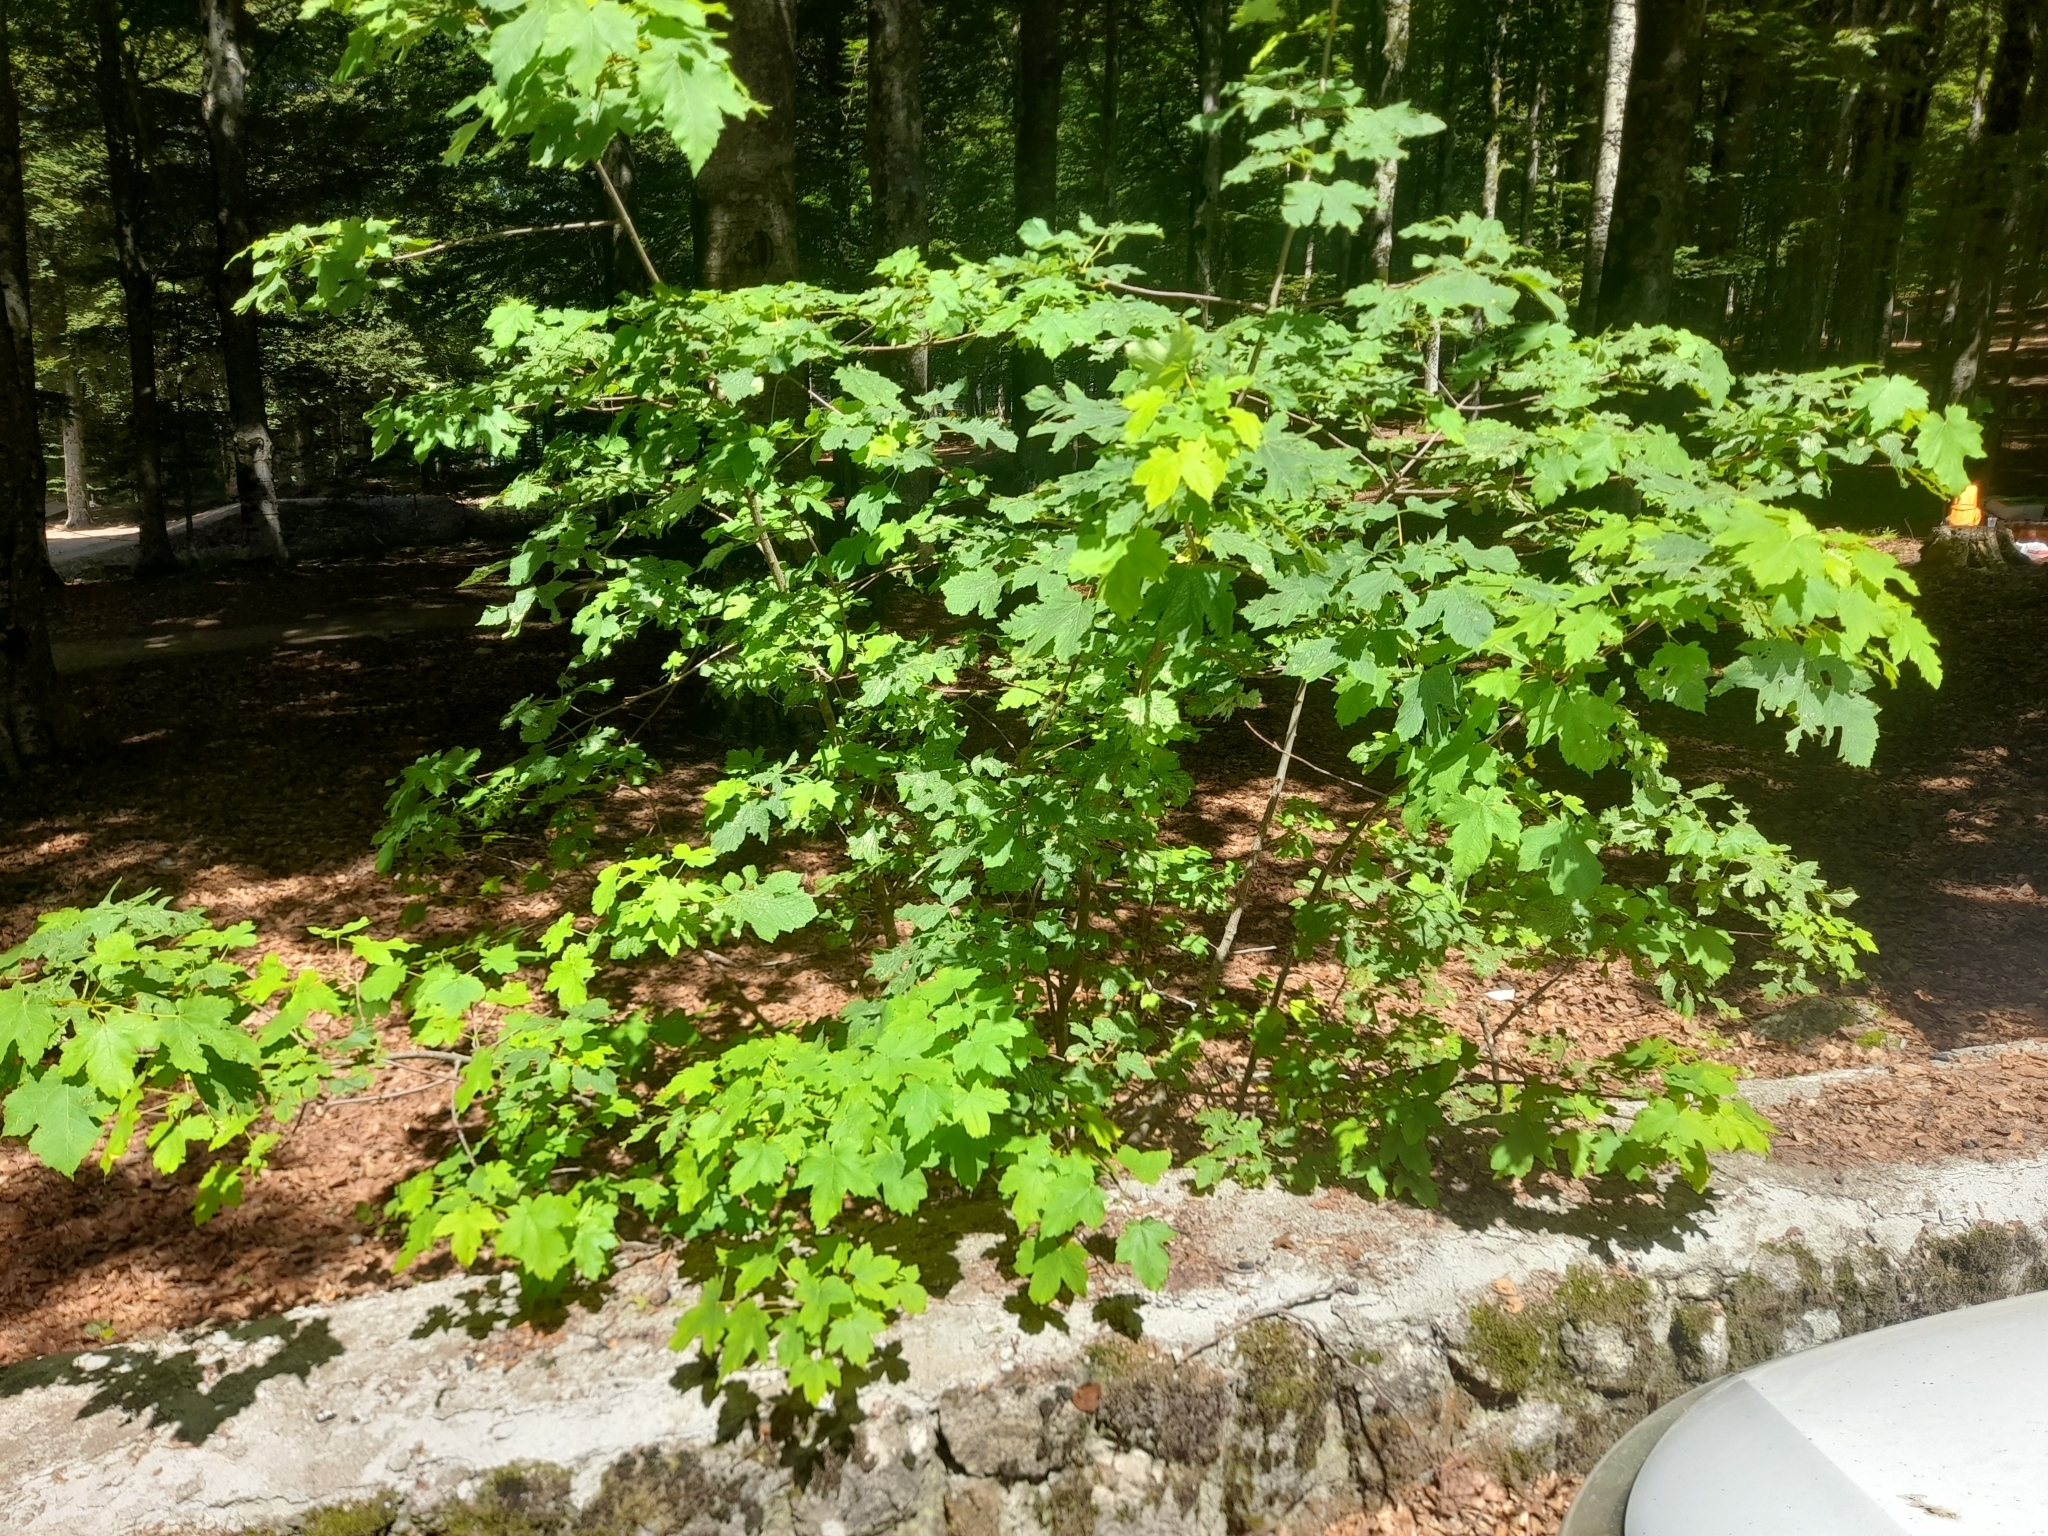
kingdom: Plantae
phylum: Tracheophyta
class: Magnoliopsida
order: Sapindales
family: Sapindaceae
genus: Acer
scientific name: Acer pseudoplatanus
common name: Sycamore
